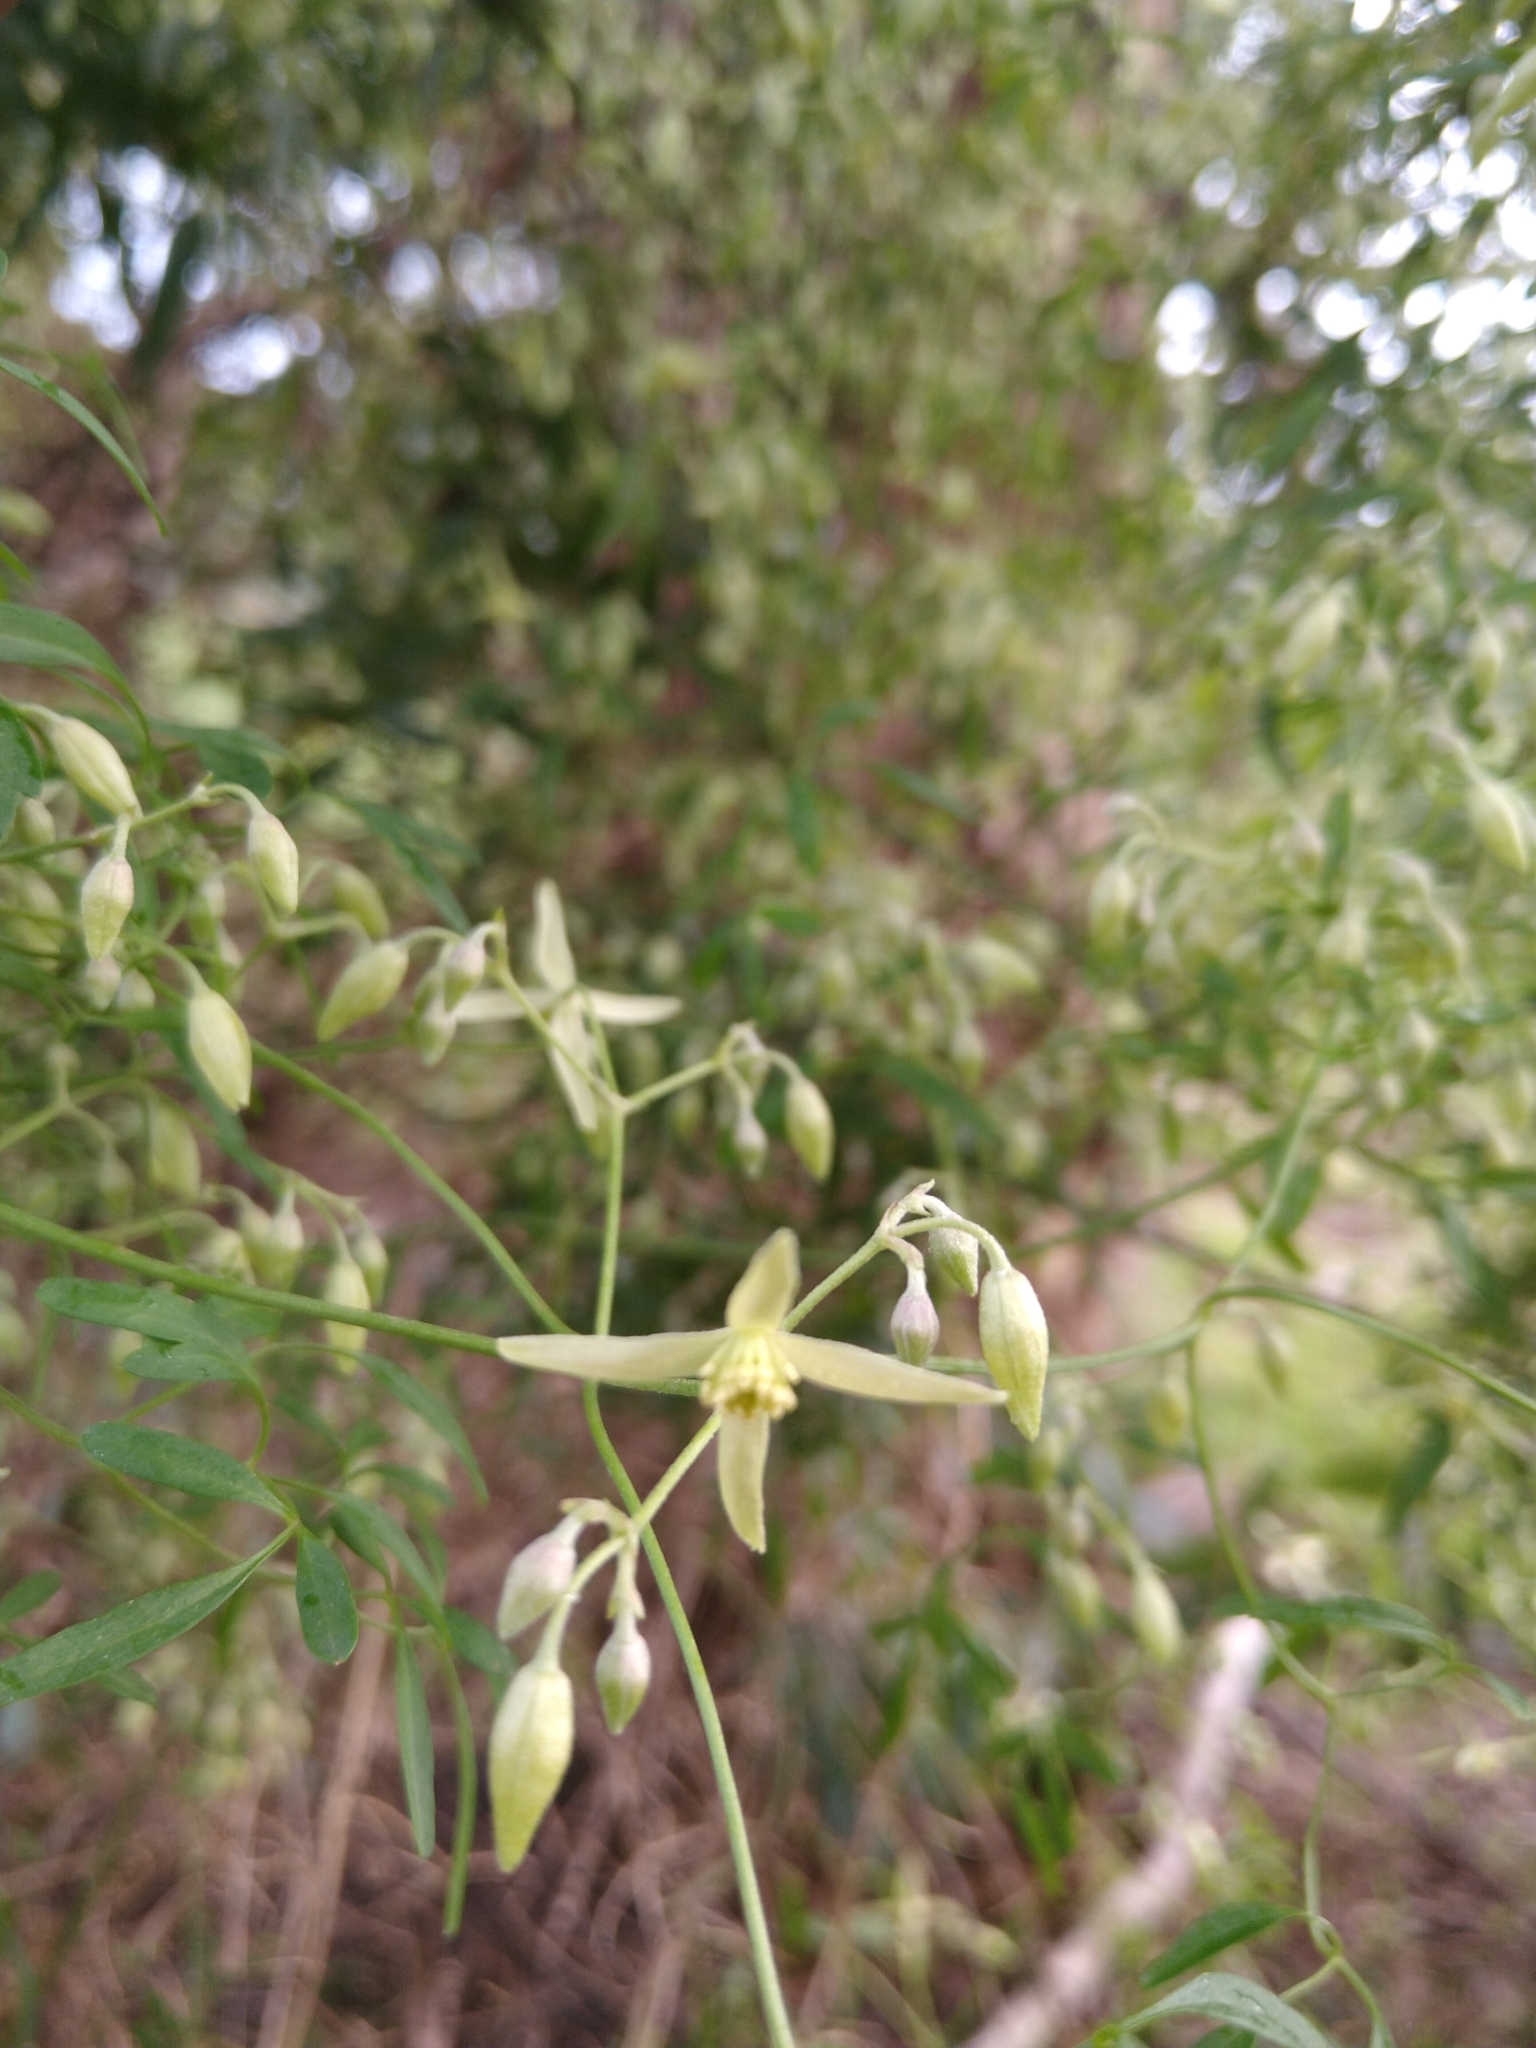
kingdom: Plantae
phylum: Tracheophyta
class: Magnoliopsida
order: Ranunculales
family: Ranunculaceae
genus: Clematis
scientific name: Clematis microphylla
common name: Headachevine
